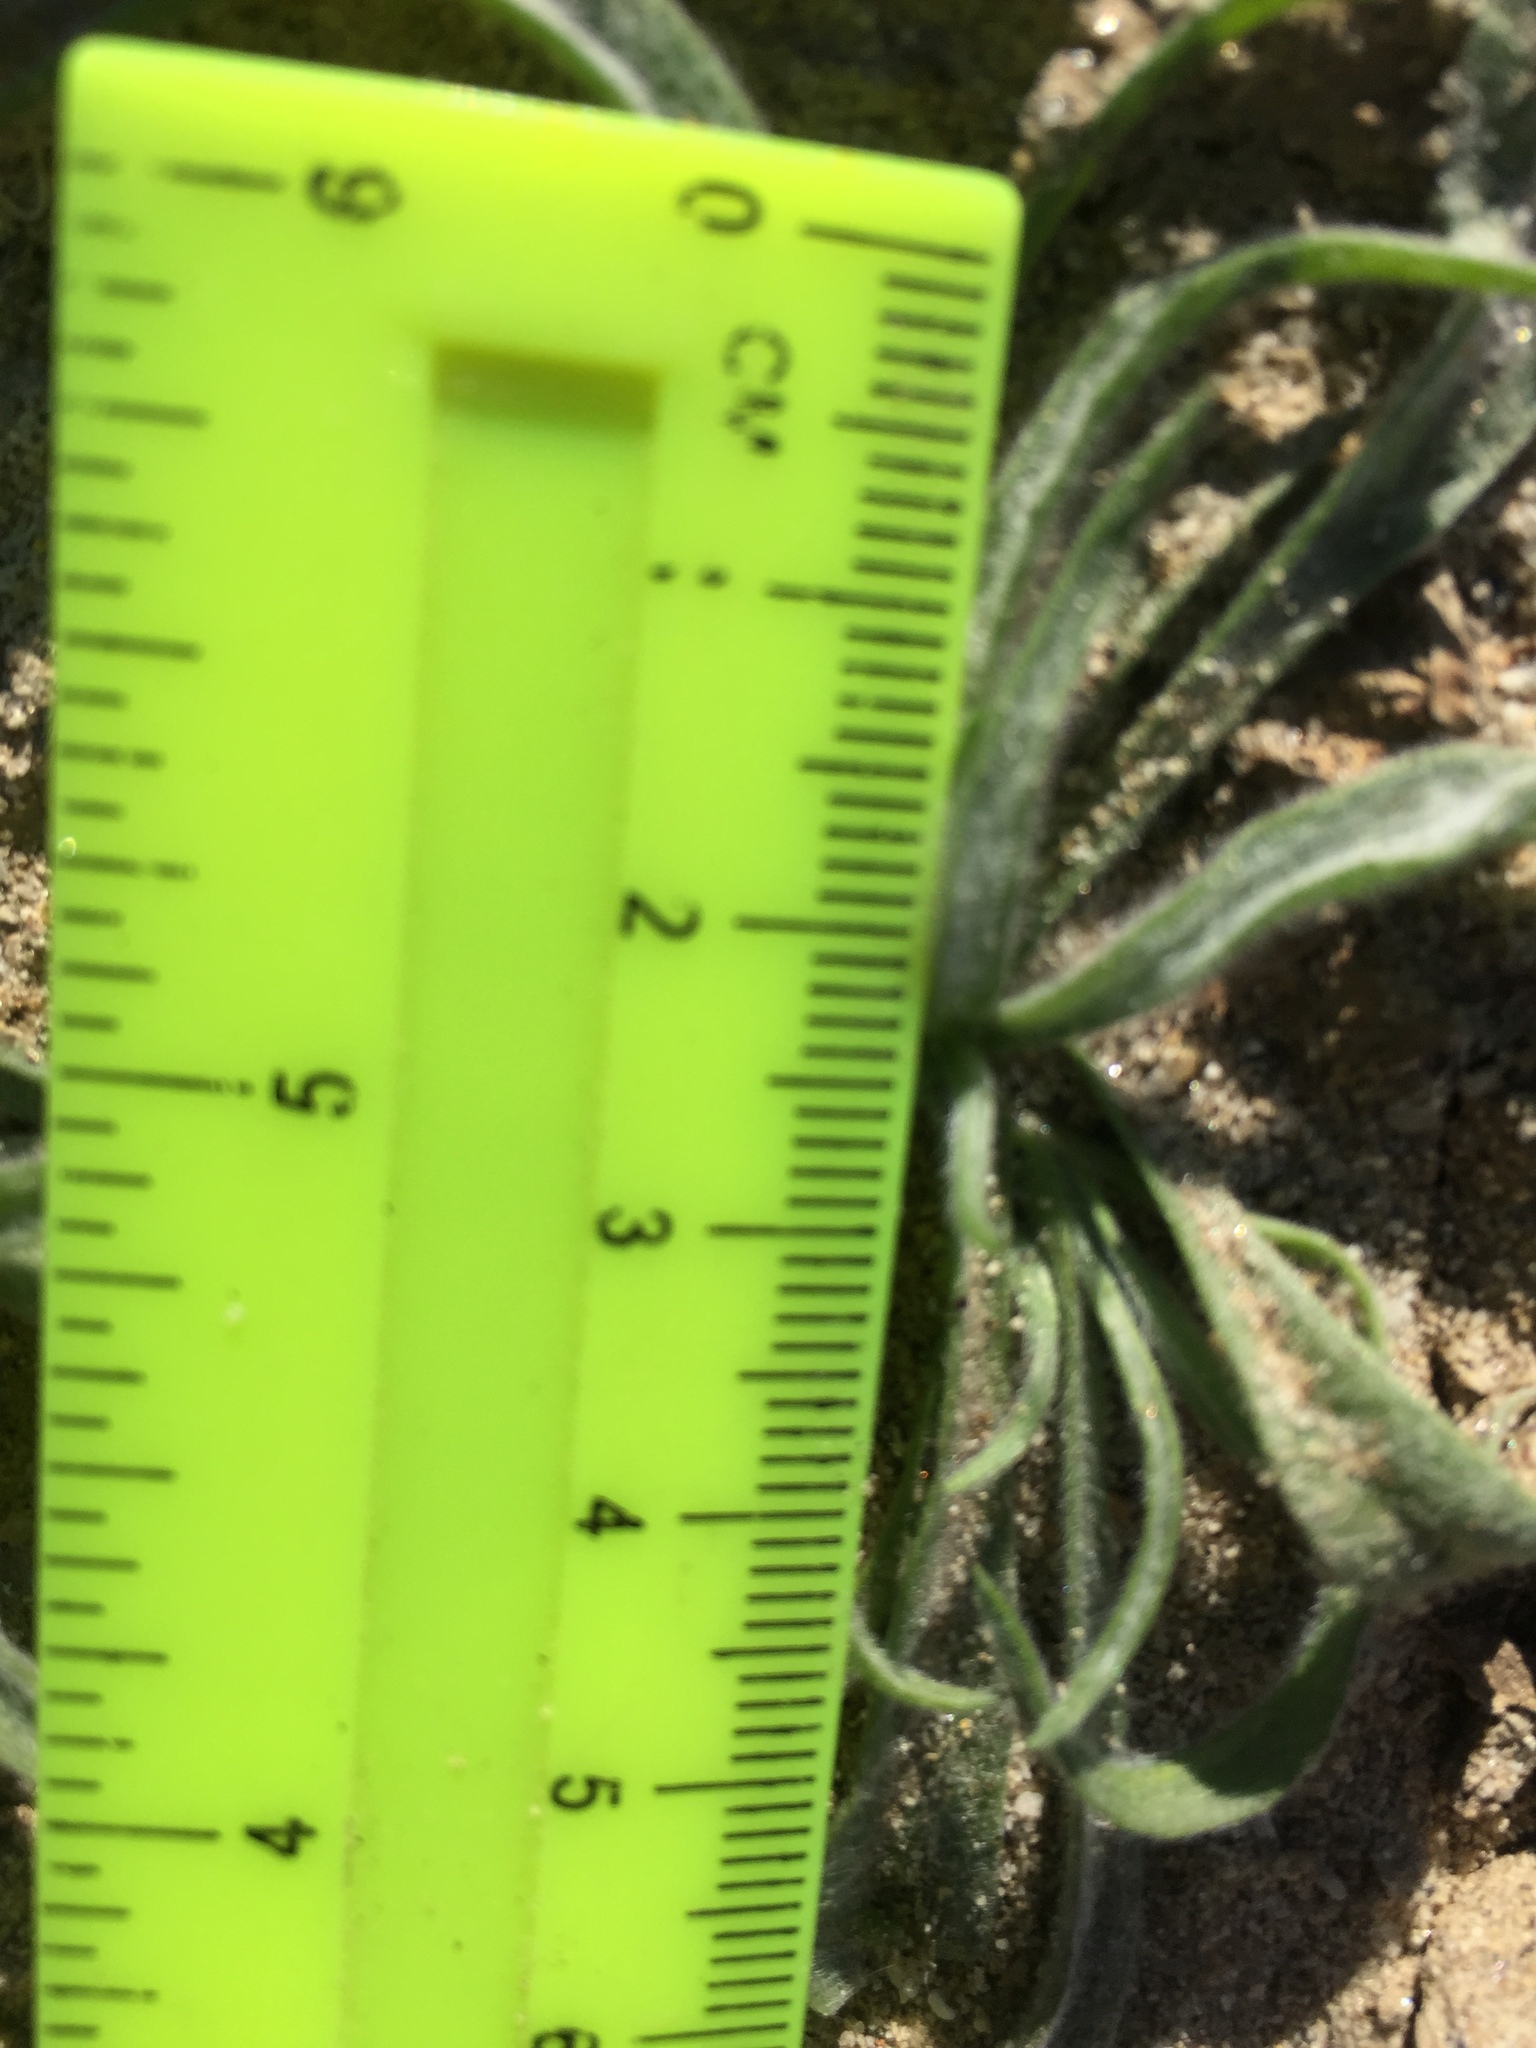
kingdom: Plantae
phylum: Tracheophyta
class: Magnoliopsida
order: Lamiales
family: Plantaginaceae
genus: Plantago
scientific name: Plantago ovata
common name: Blond plantain
